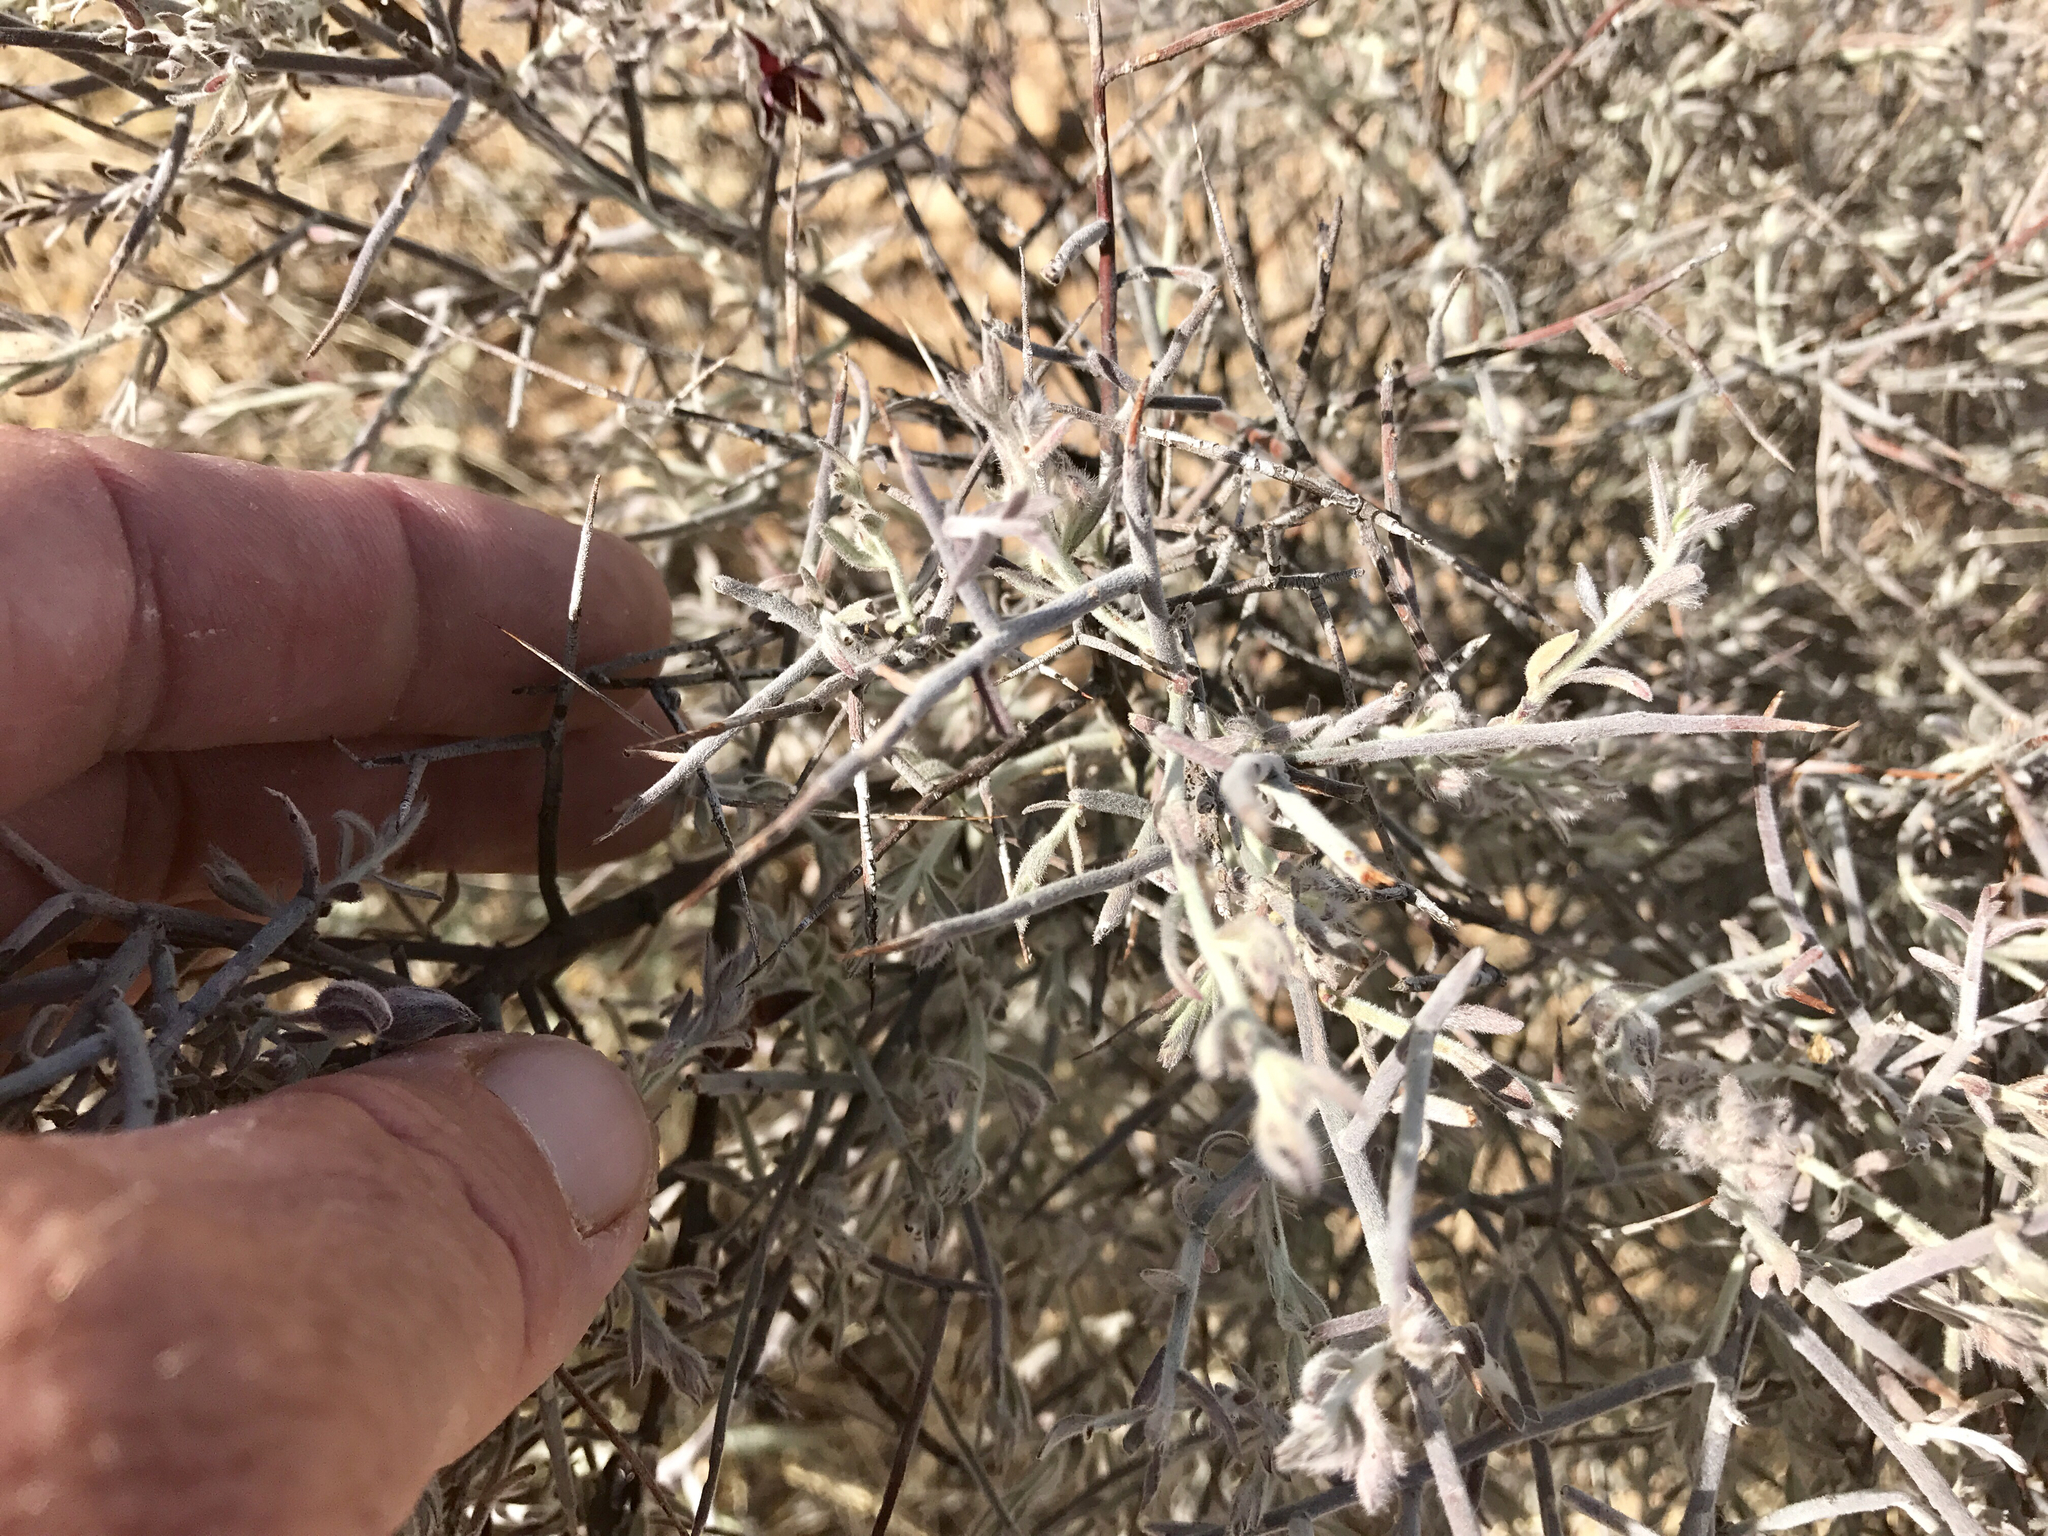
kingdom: Plantae
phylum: Tracheophyta
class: Magnoliopsida
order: Zygophyllales
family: Krameriaceae
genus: Krameria
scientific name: Krameria bicolor
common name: White ratany
